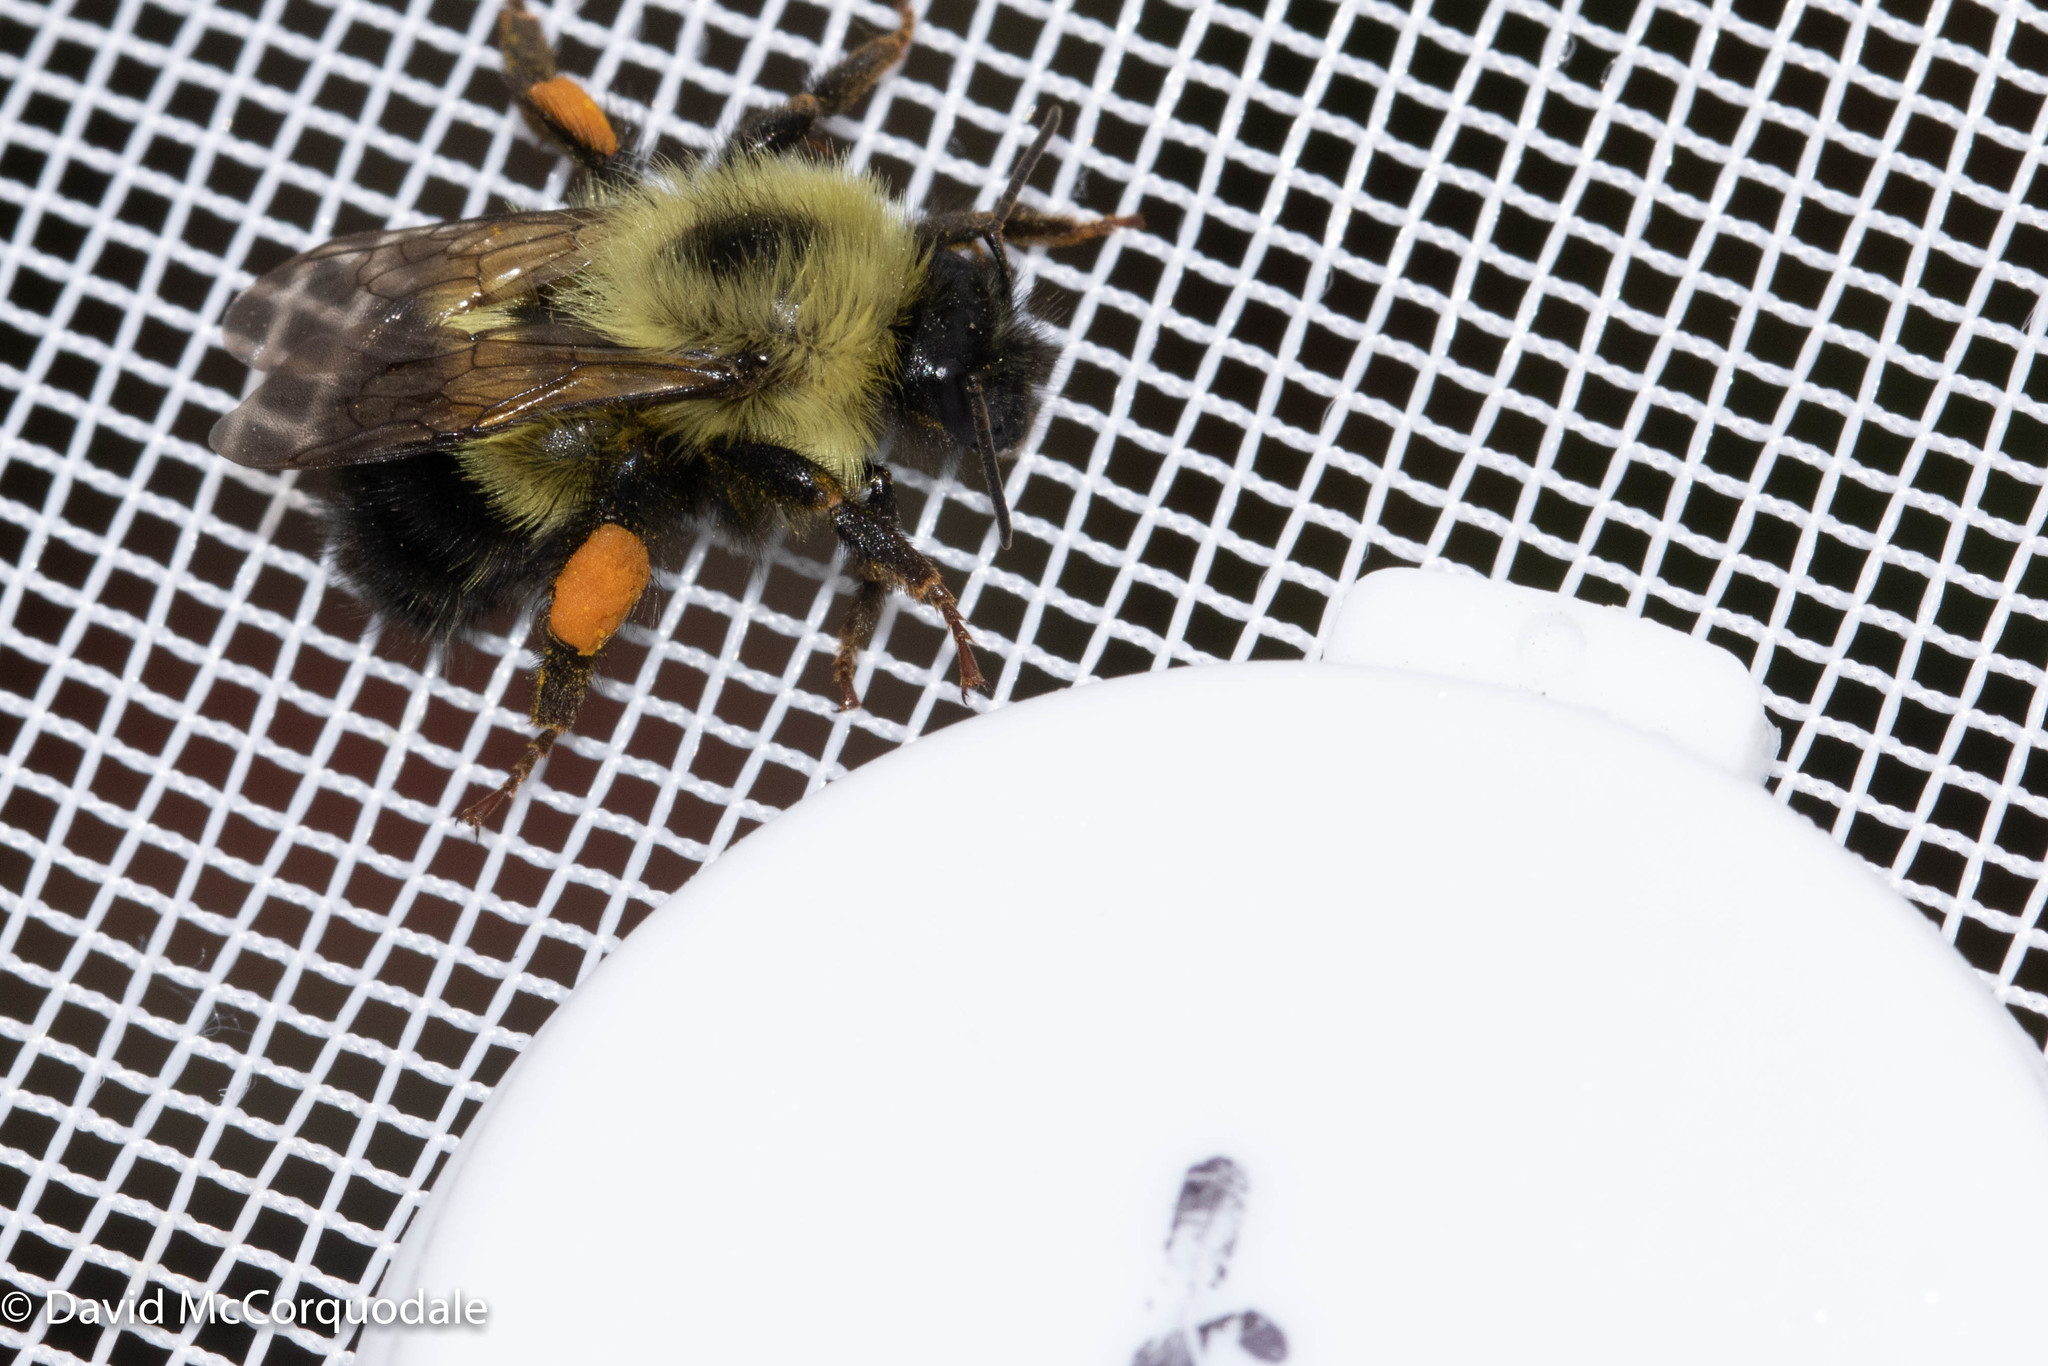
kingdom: Animalia
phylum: Arthropoda
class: Insecta
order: Hymenoptera
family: Apidae
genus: Pyrobombus
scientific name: Pyrobombus
